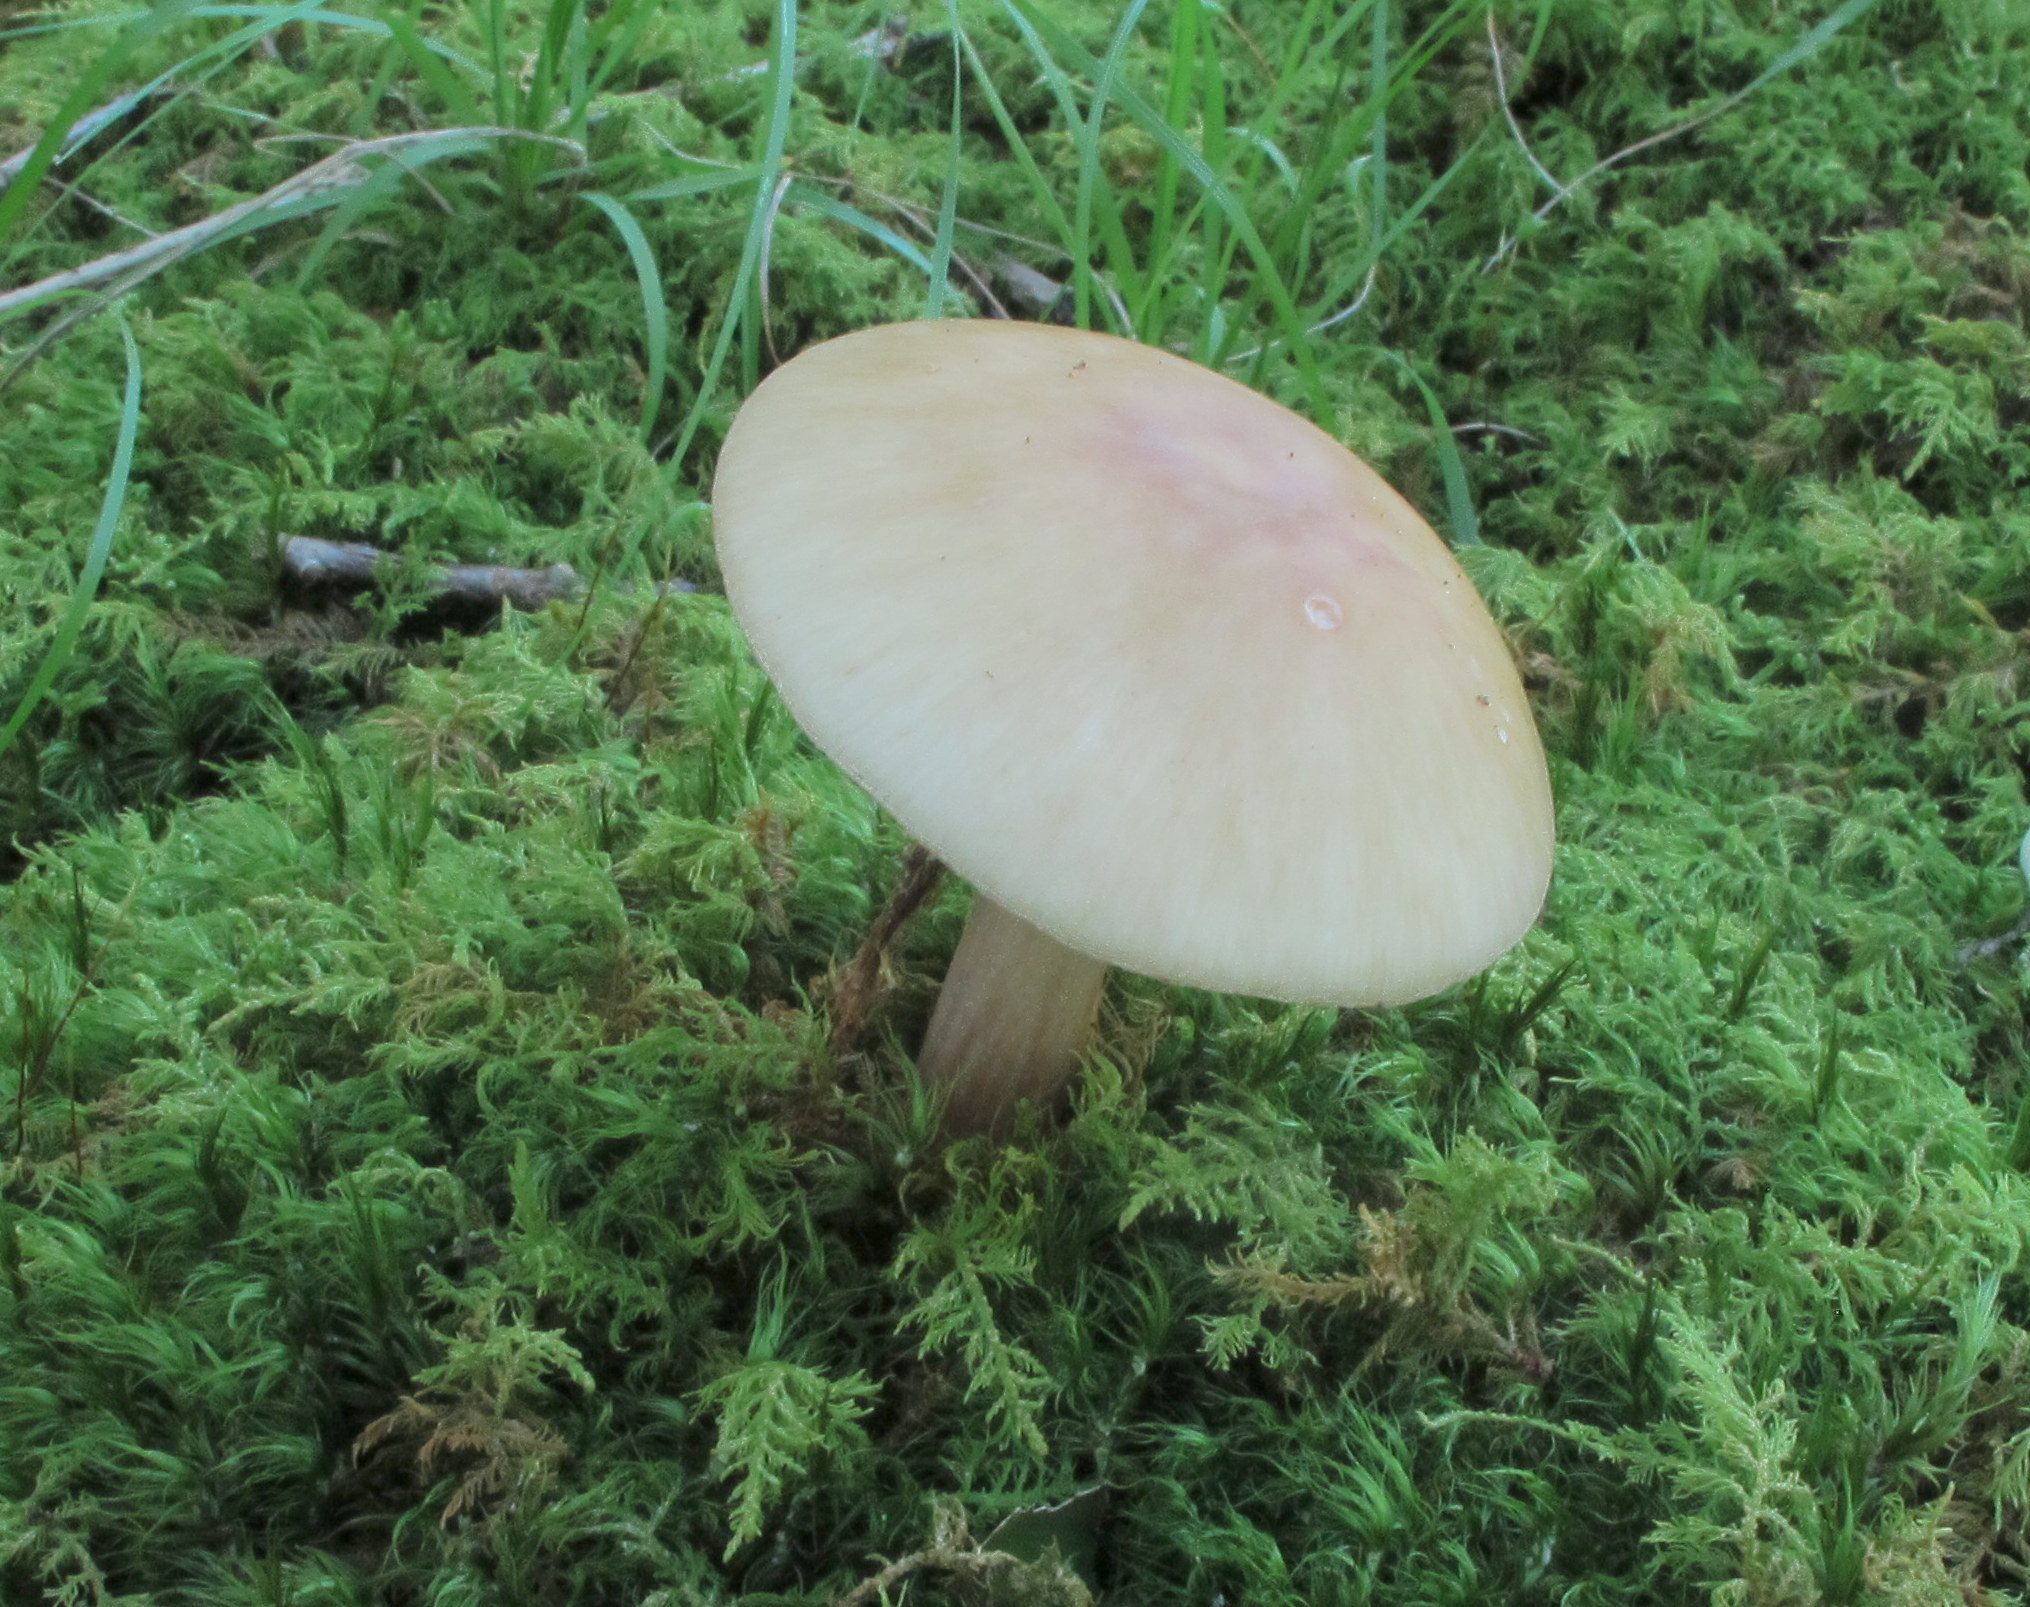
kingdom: Fungi
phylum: Basidiomycota
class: Agaricomycetes
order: Agaricales
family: Amanitaceae
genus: Amanita
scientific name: Amanita rubescens
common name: Blusher
